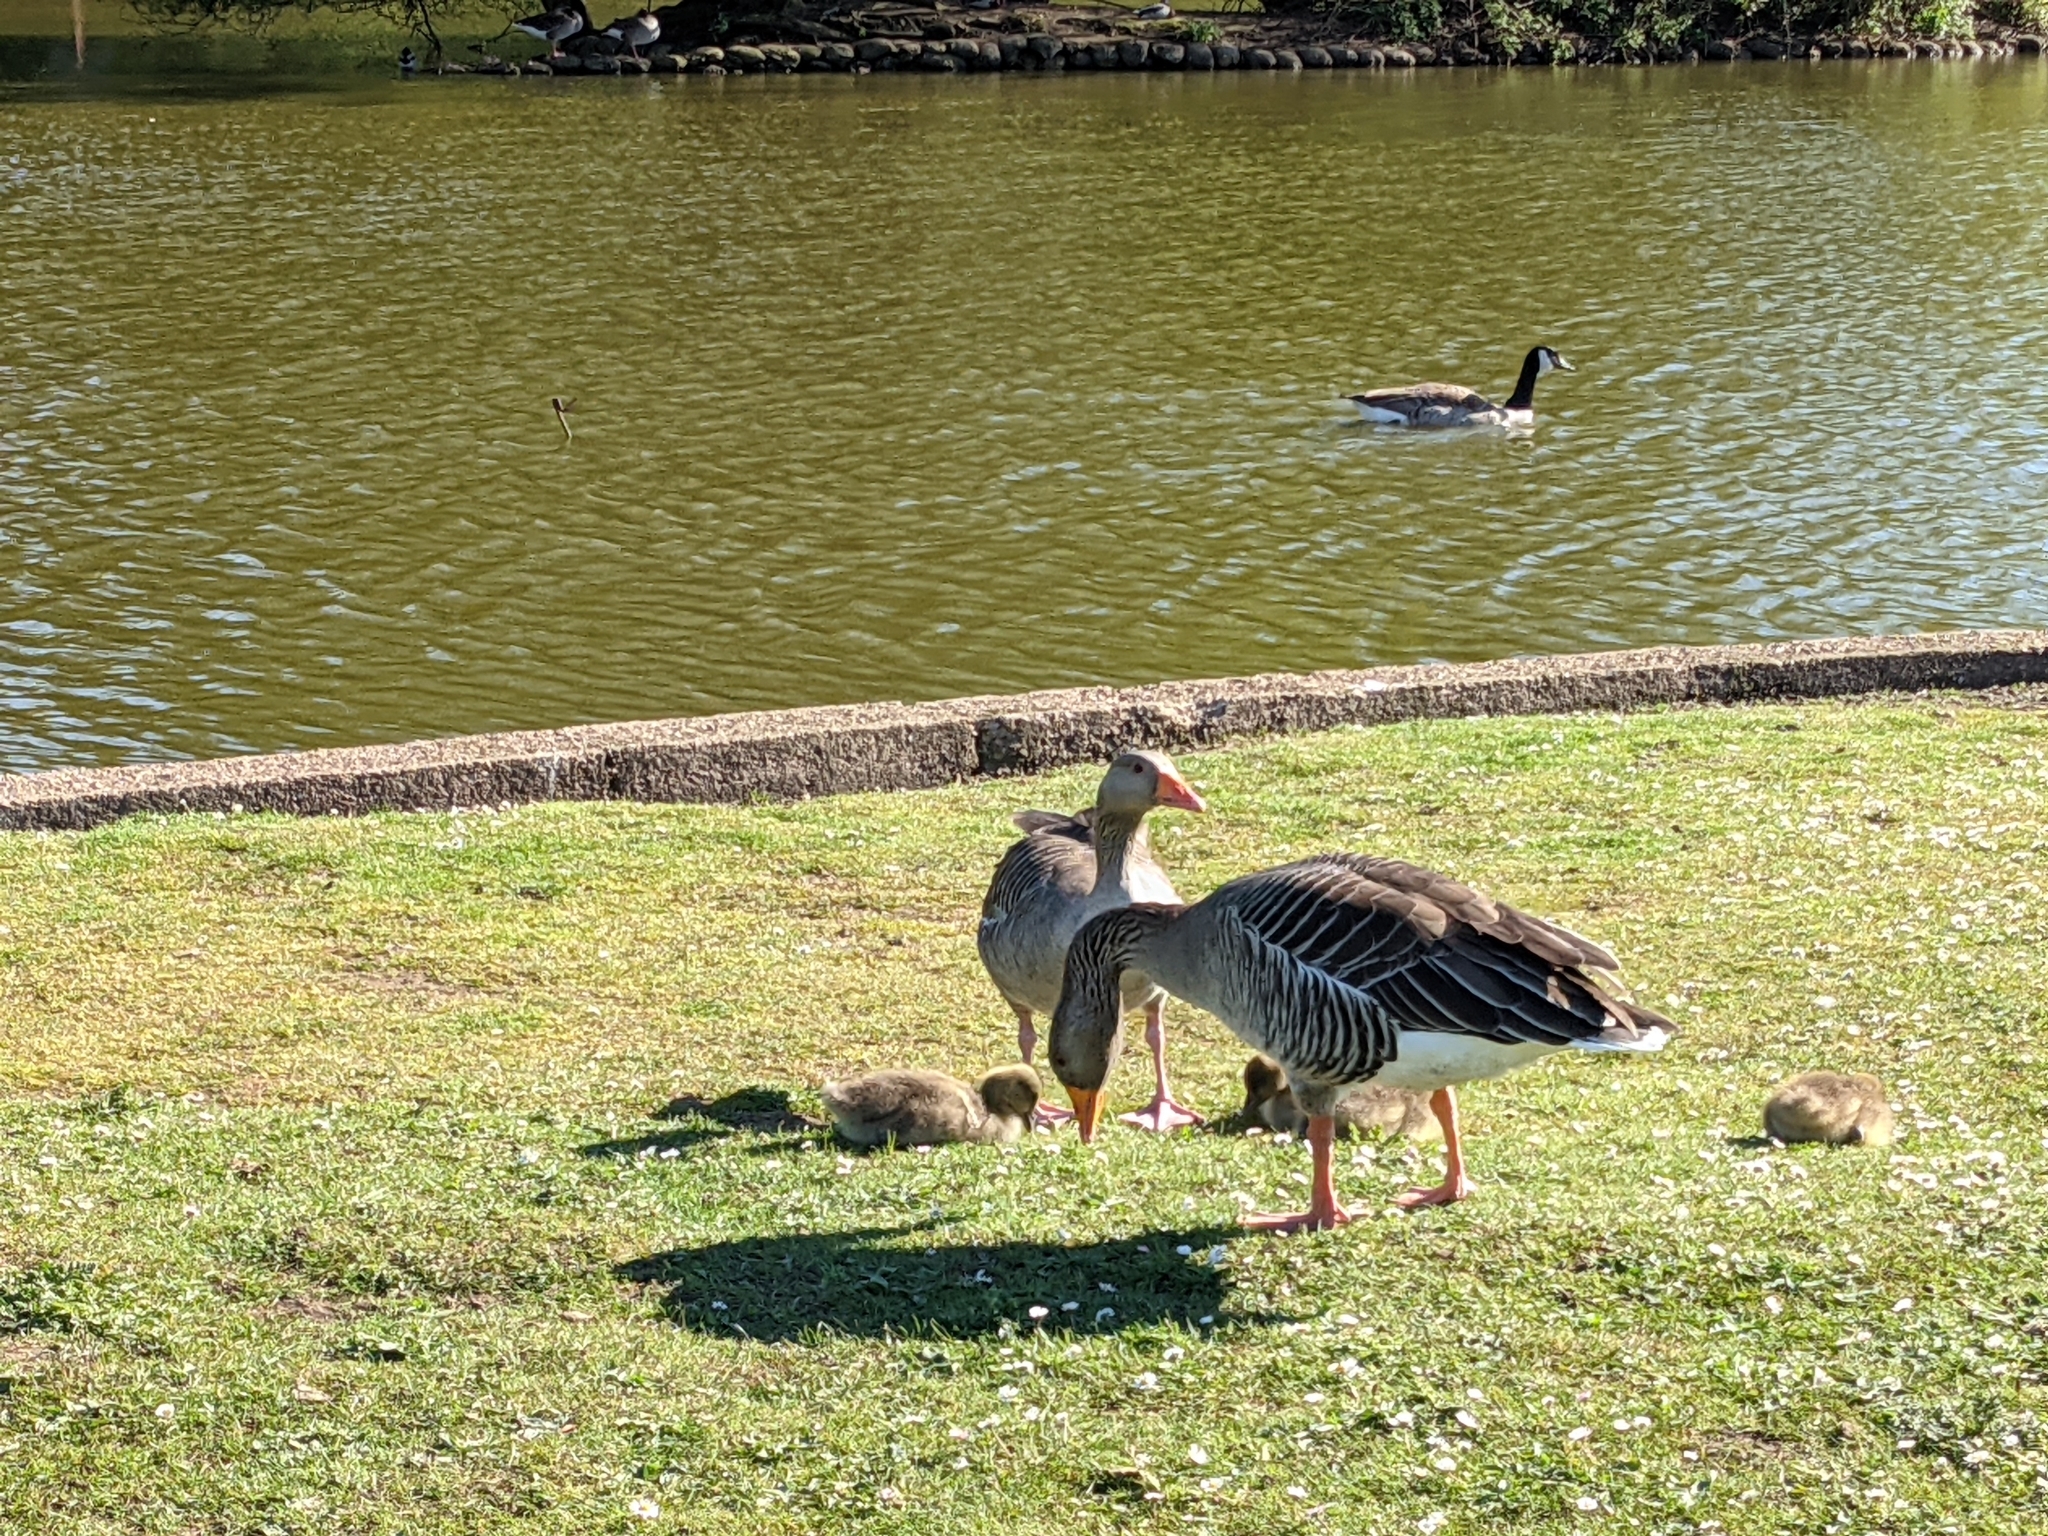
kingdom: Animalia
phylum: Chordata
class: Aves
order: Anseriformes
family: Anatidae
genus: Anser
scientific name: Anser anser
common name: Greylag goose
